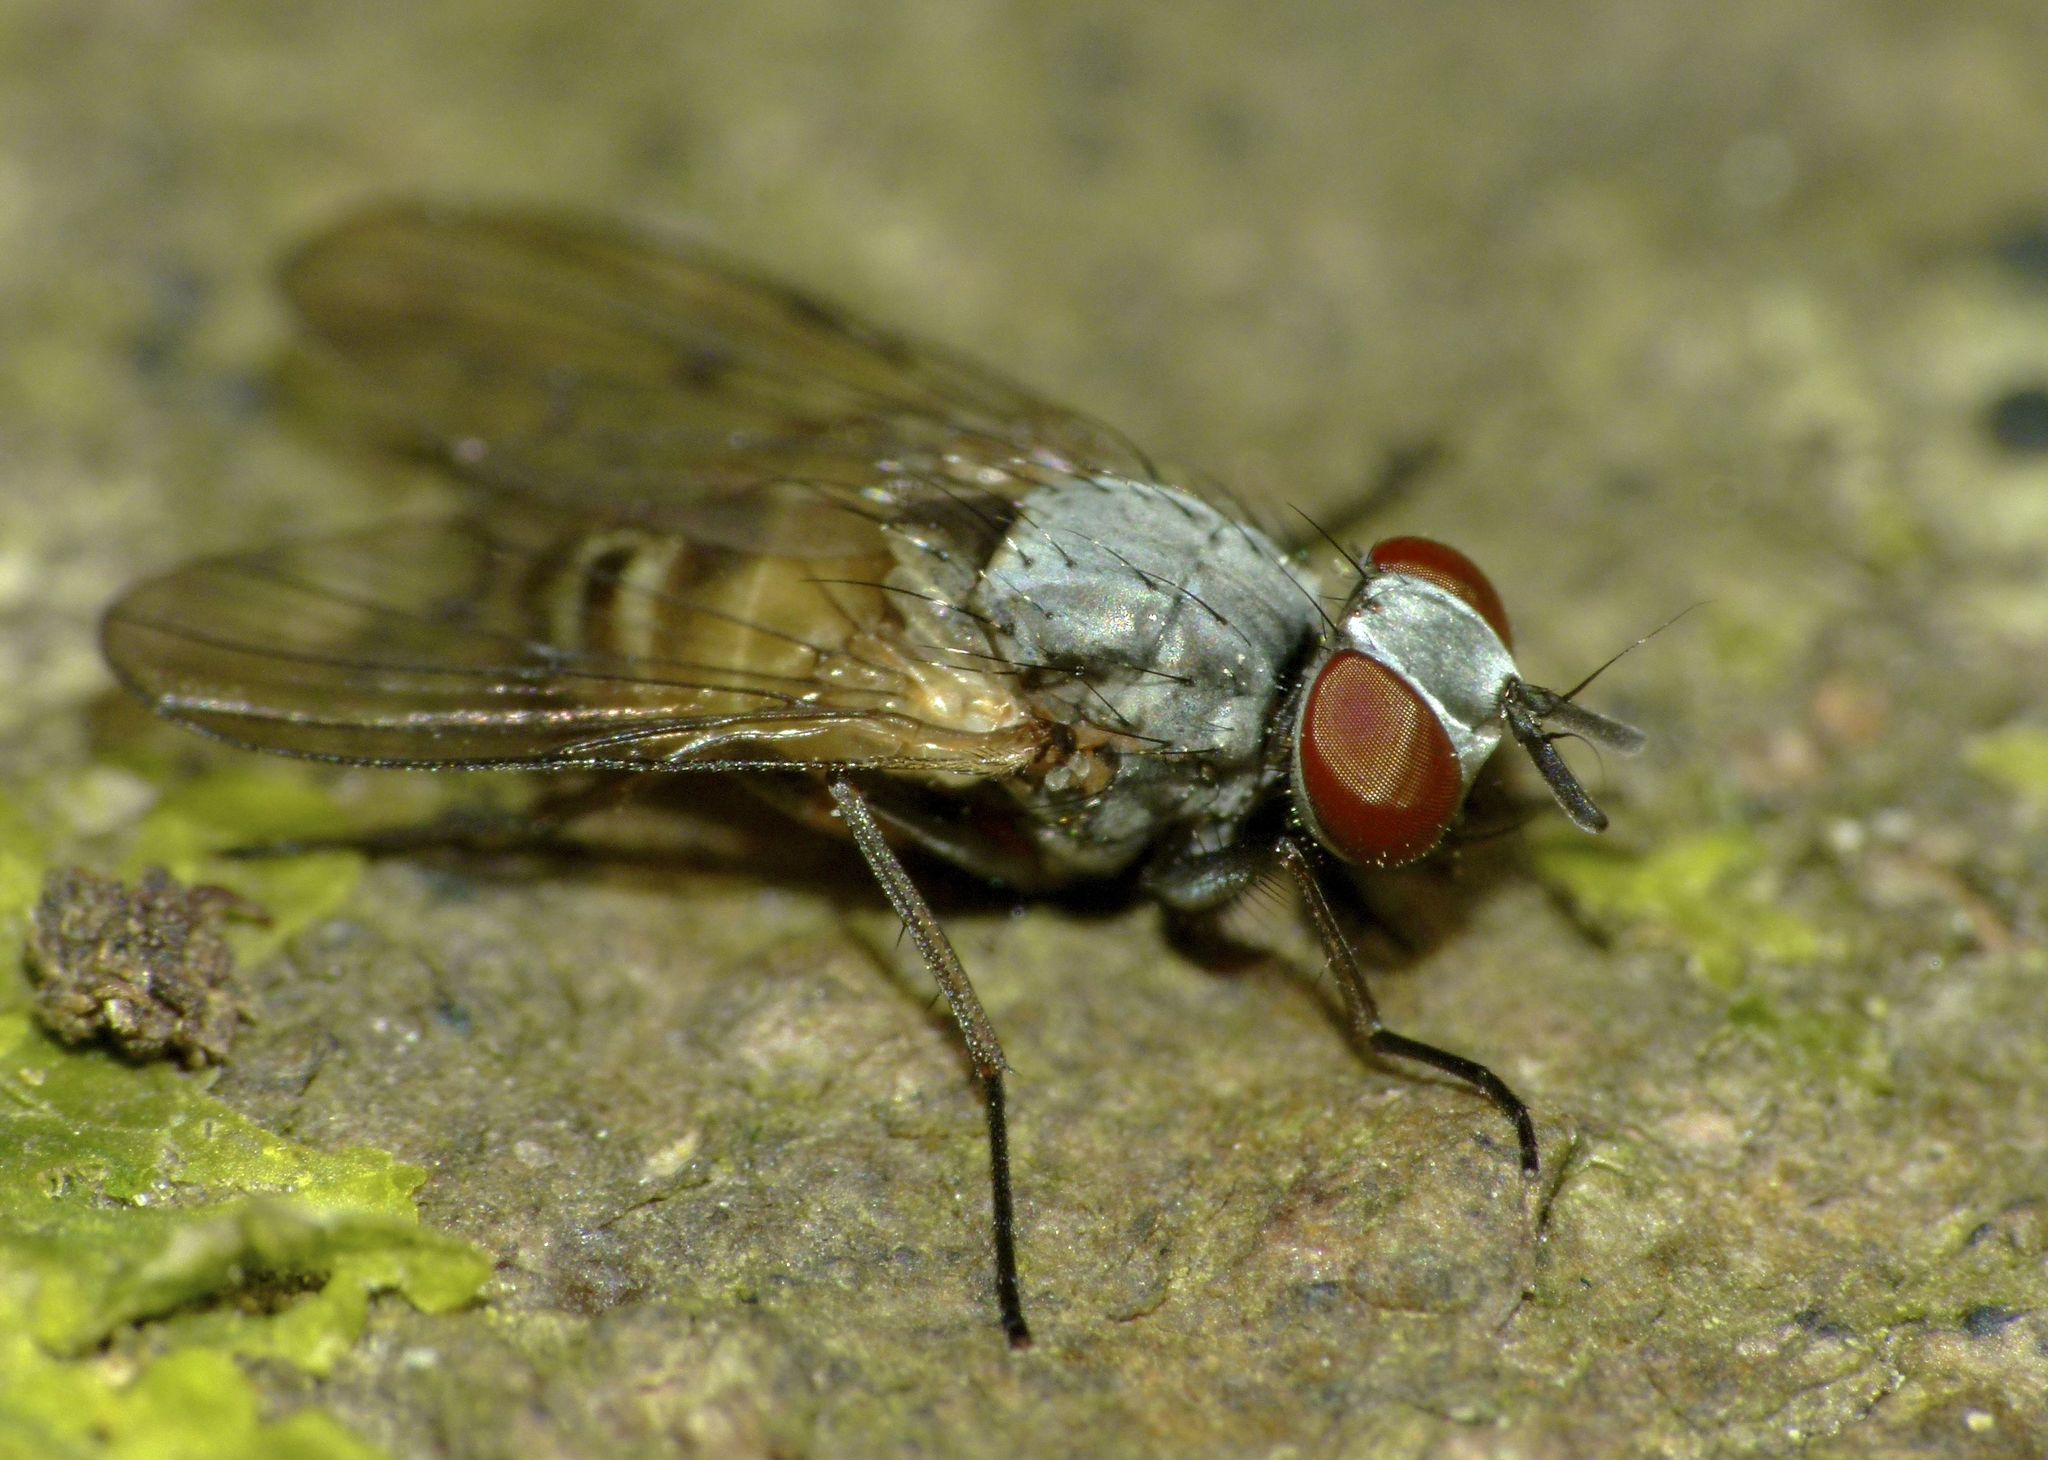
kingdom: Animalia
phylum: Arthropoda
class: Insecta
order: Diptera
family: Muscidae
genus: Spilogona
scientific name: Spilogona flaviventris
